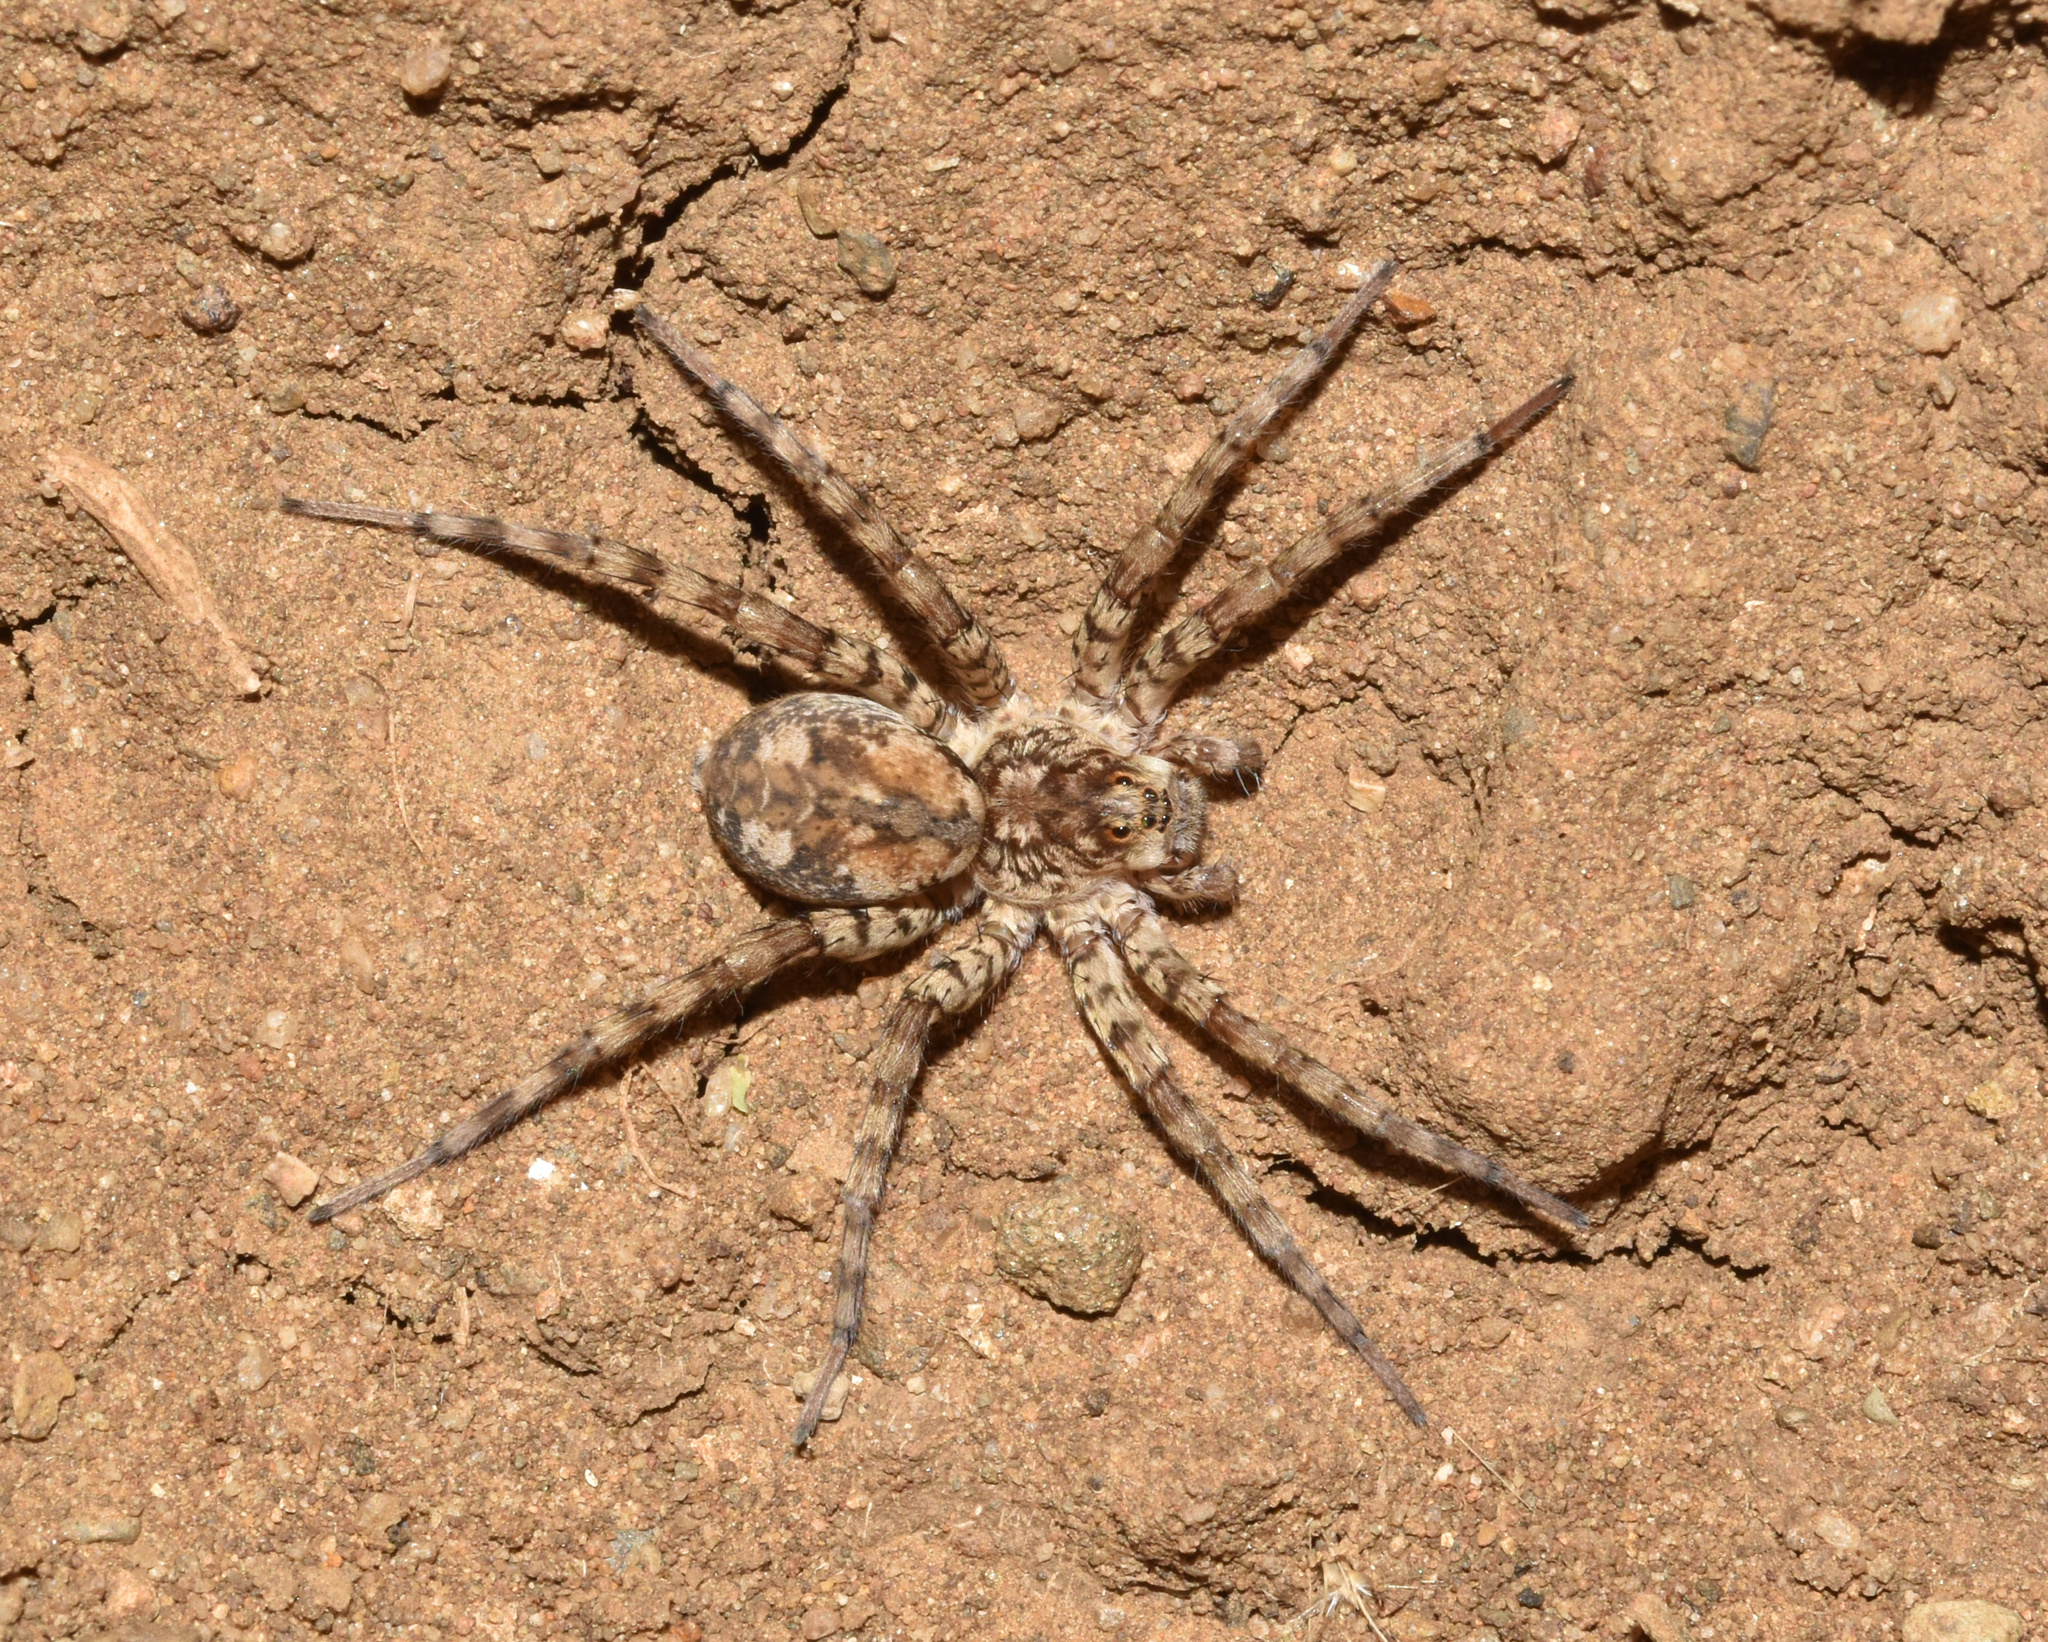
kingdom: Animalia
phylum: Arthropoda
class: Arachnida
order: Araneae
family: Lycosidae
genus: Ocyale
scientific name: Ocyale guttata
